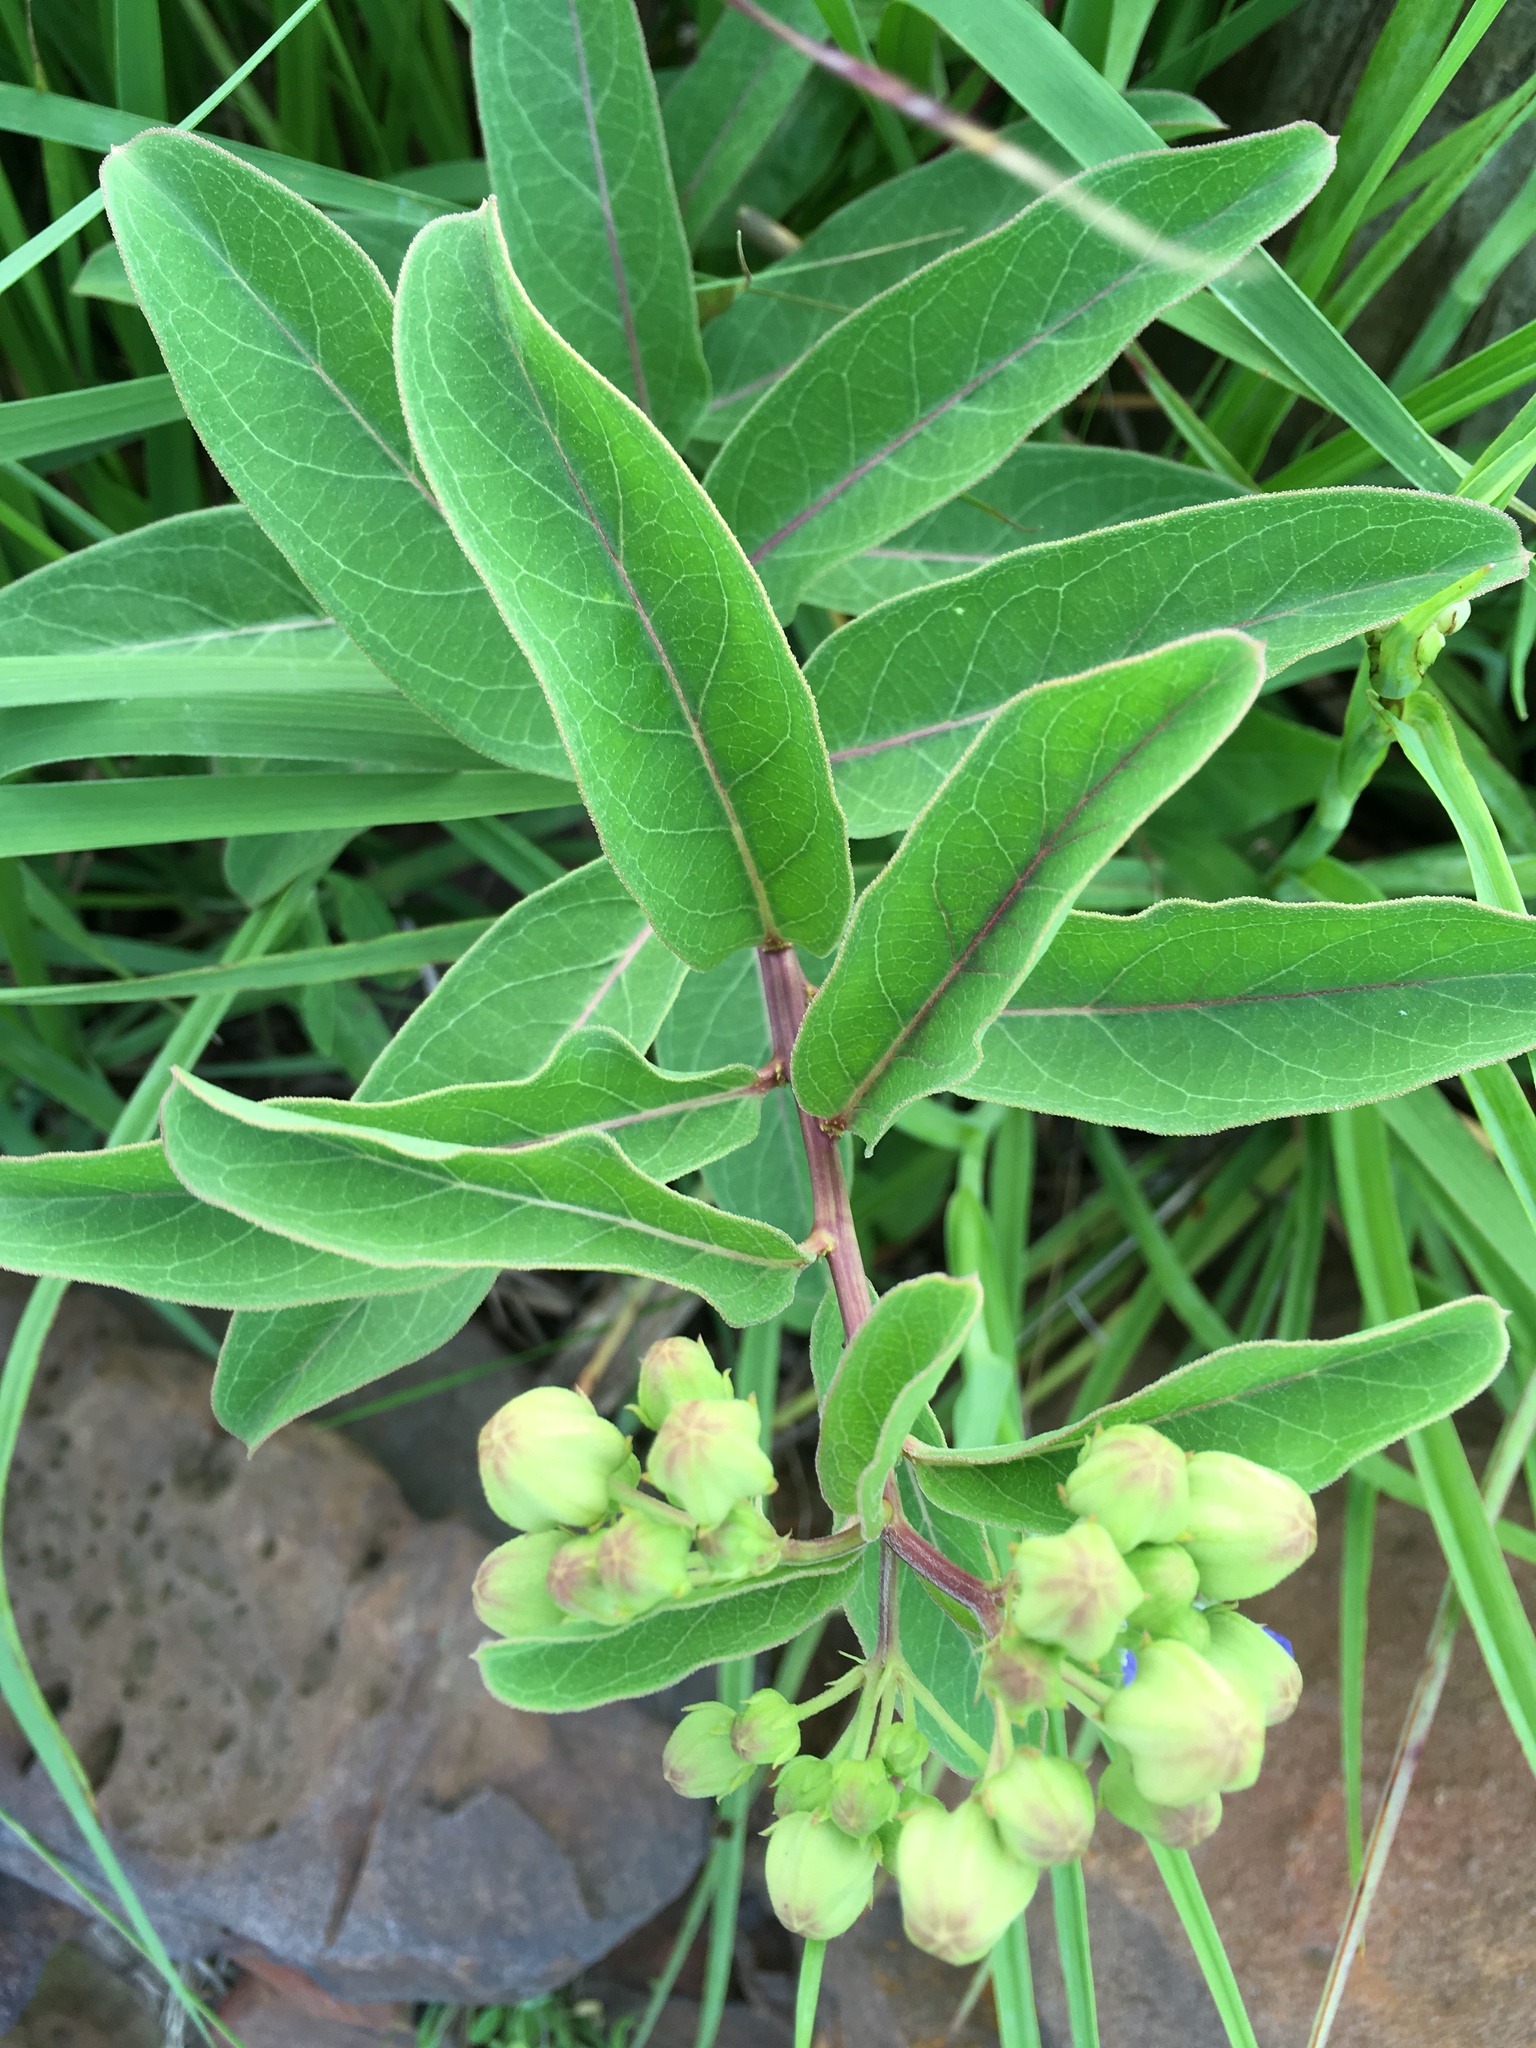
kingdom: Plantae
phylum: Tracheophyta
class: Magnoliopsida
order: Gentianales
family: Apocynaceae
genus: Asclepias
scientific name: Asclepias viridis
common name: Antelope-horns
